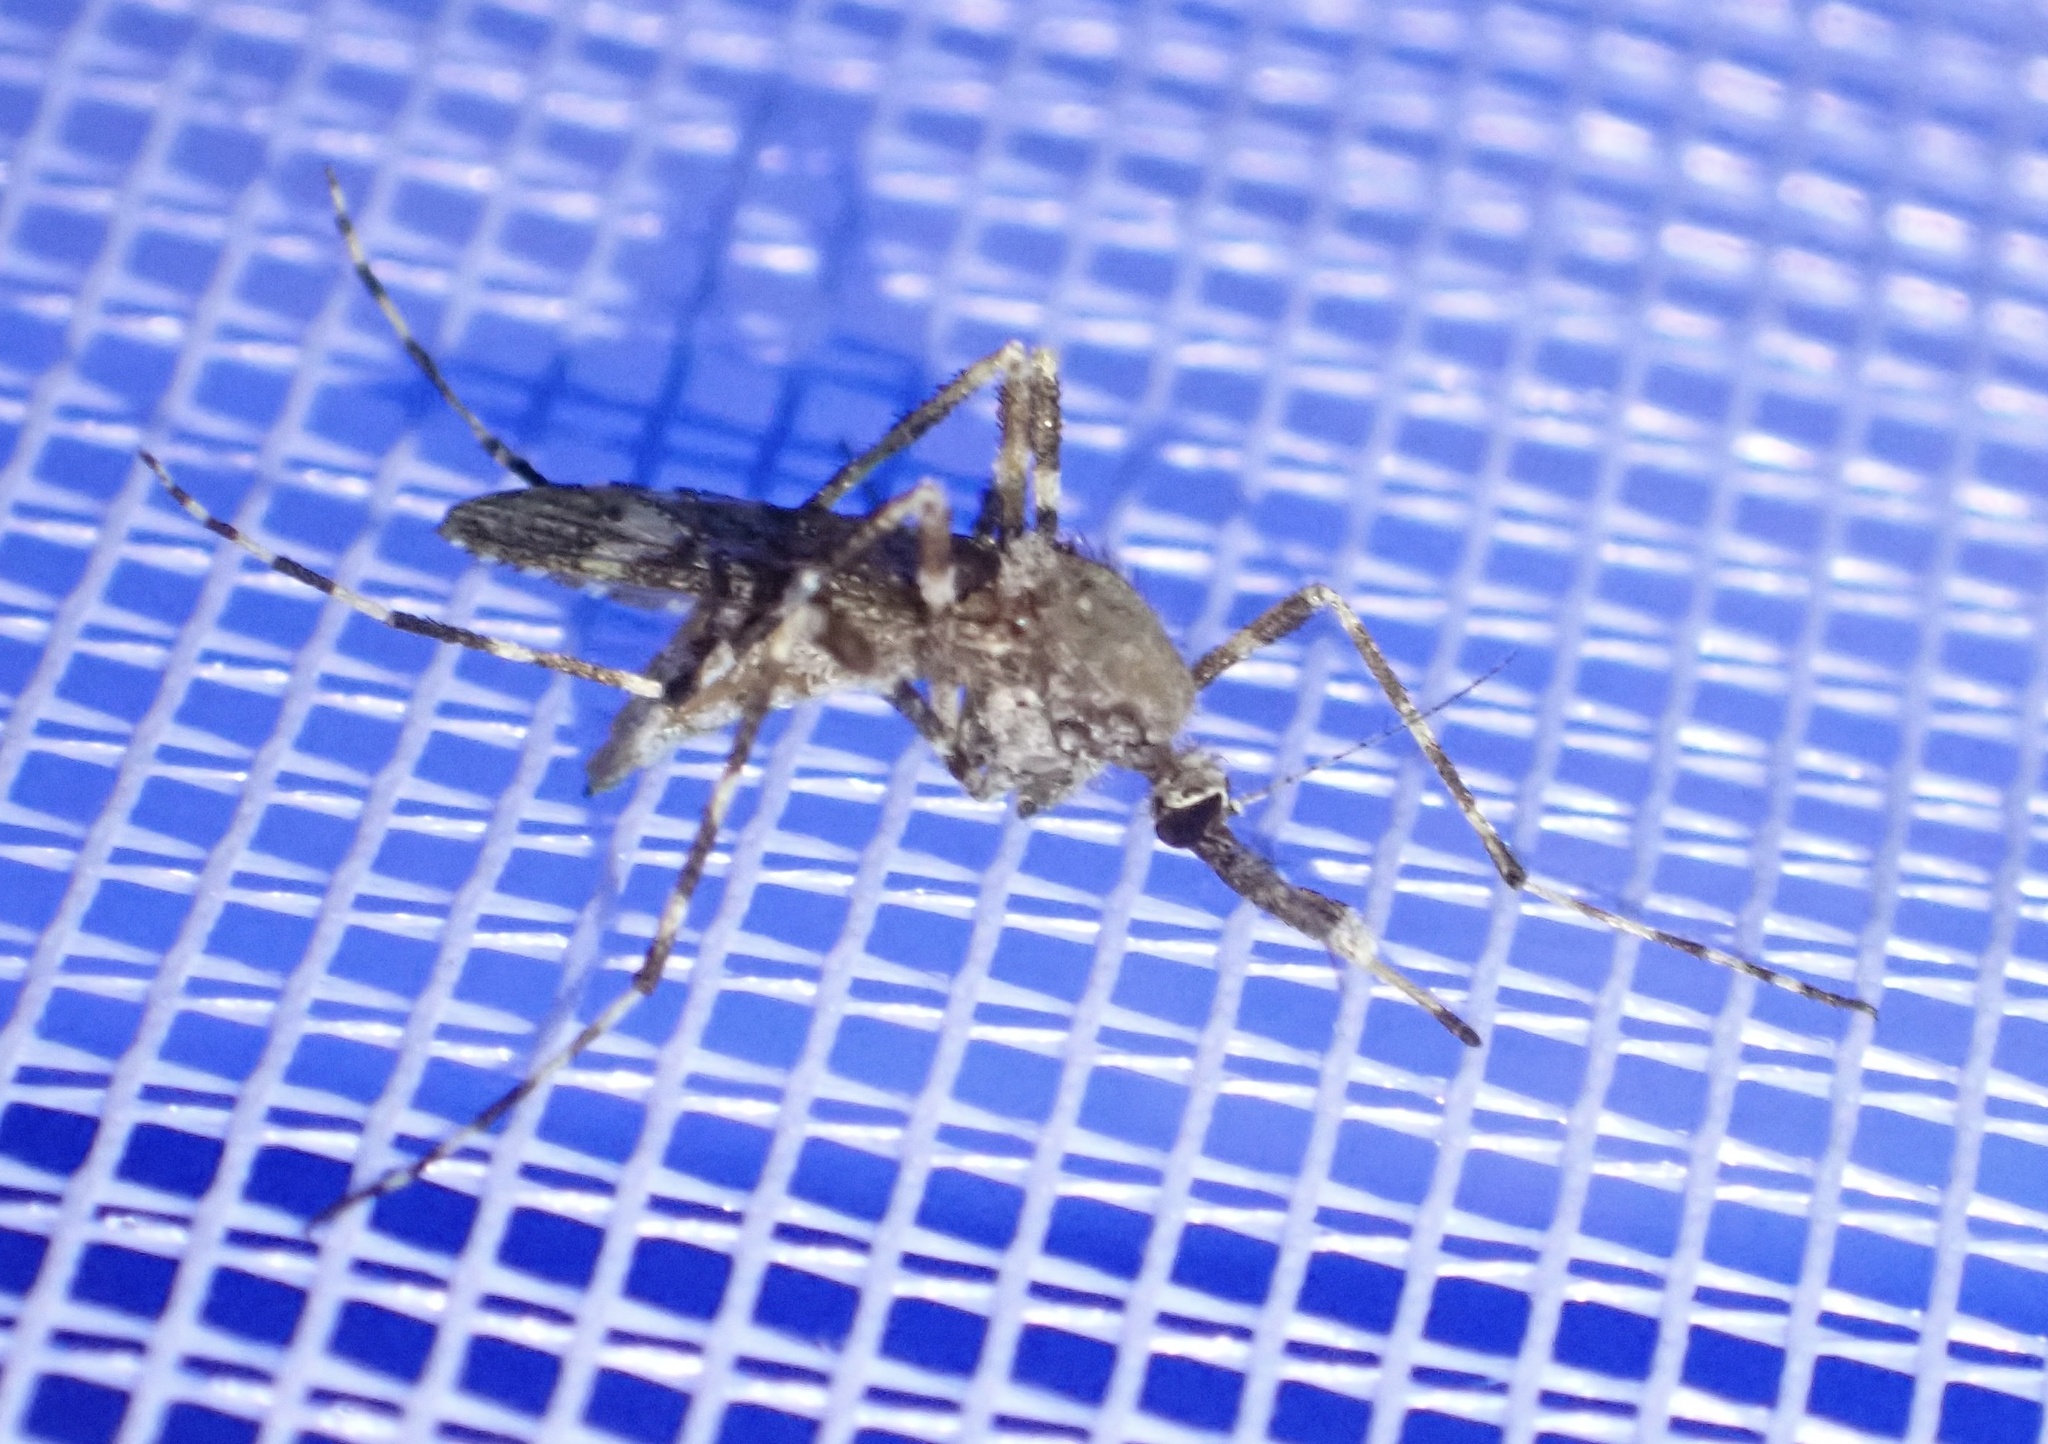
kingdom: Animalia
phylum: Arthropoda
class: Insecta
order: Diptera
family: Culicidae
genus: Aedes
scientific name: Aedes alternans
